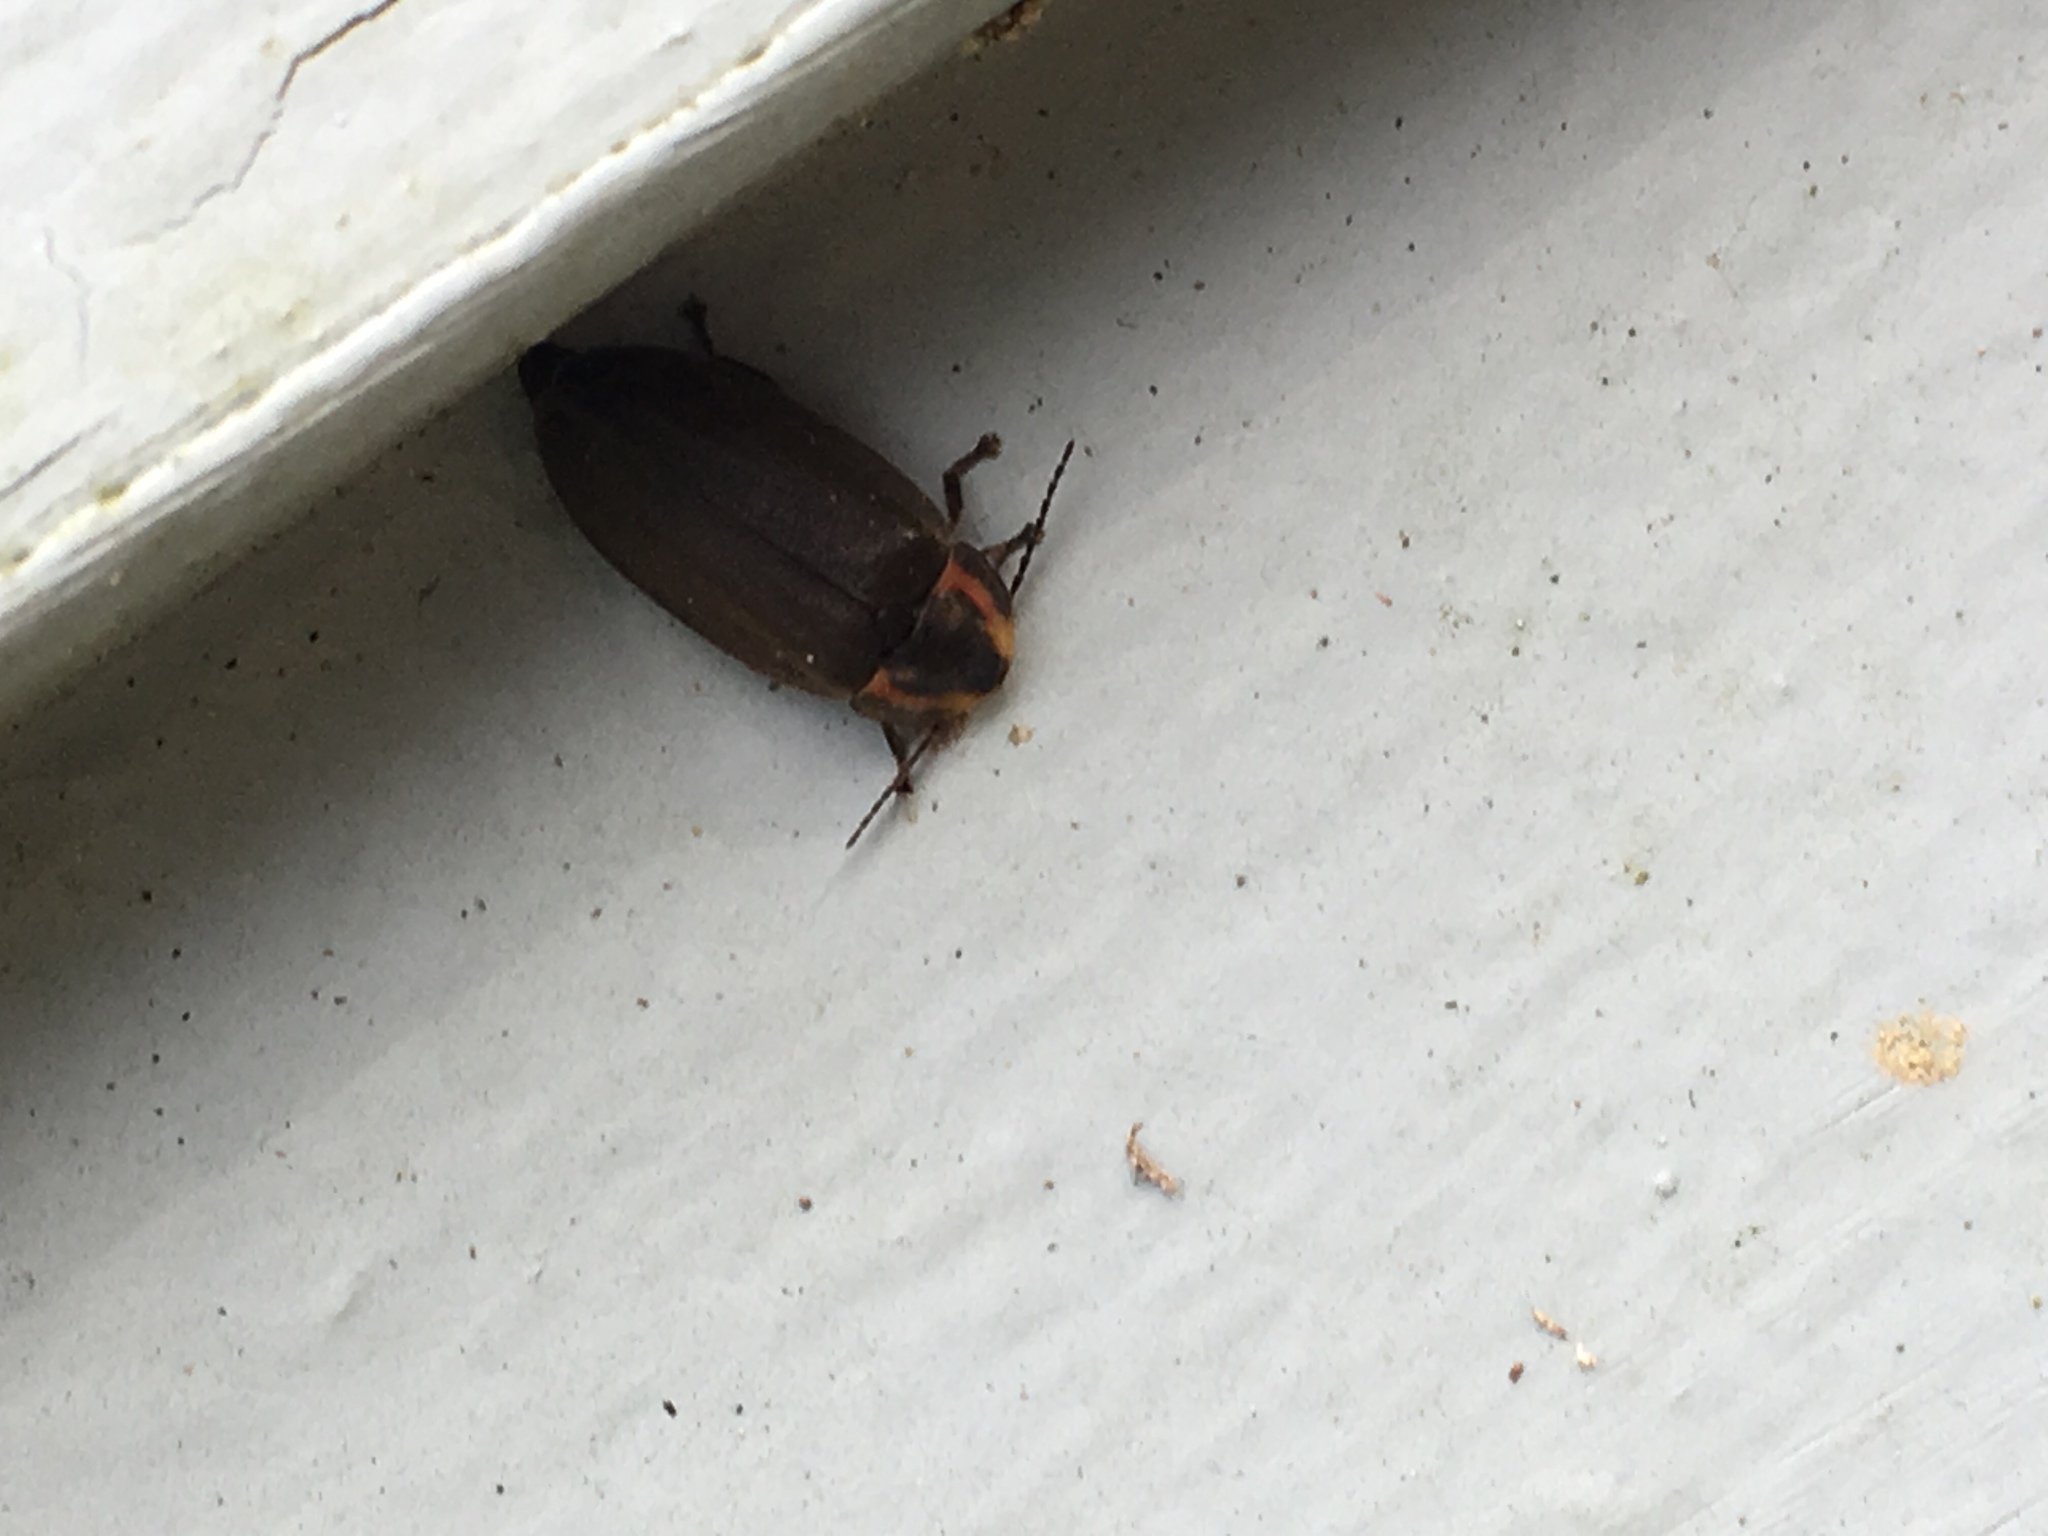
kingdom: Animalia
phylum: Arthropoda
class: Insecta
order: Coleoptera
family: Lampyridae
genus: Photinus
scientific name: Photinus corrusca
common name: Winter firefly
